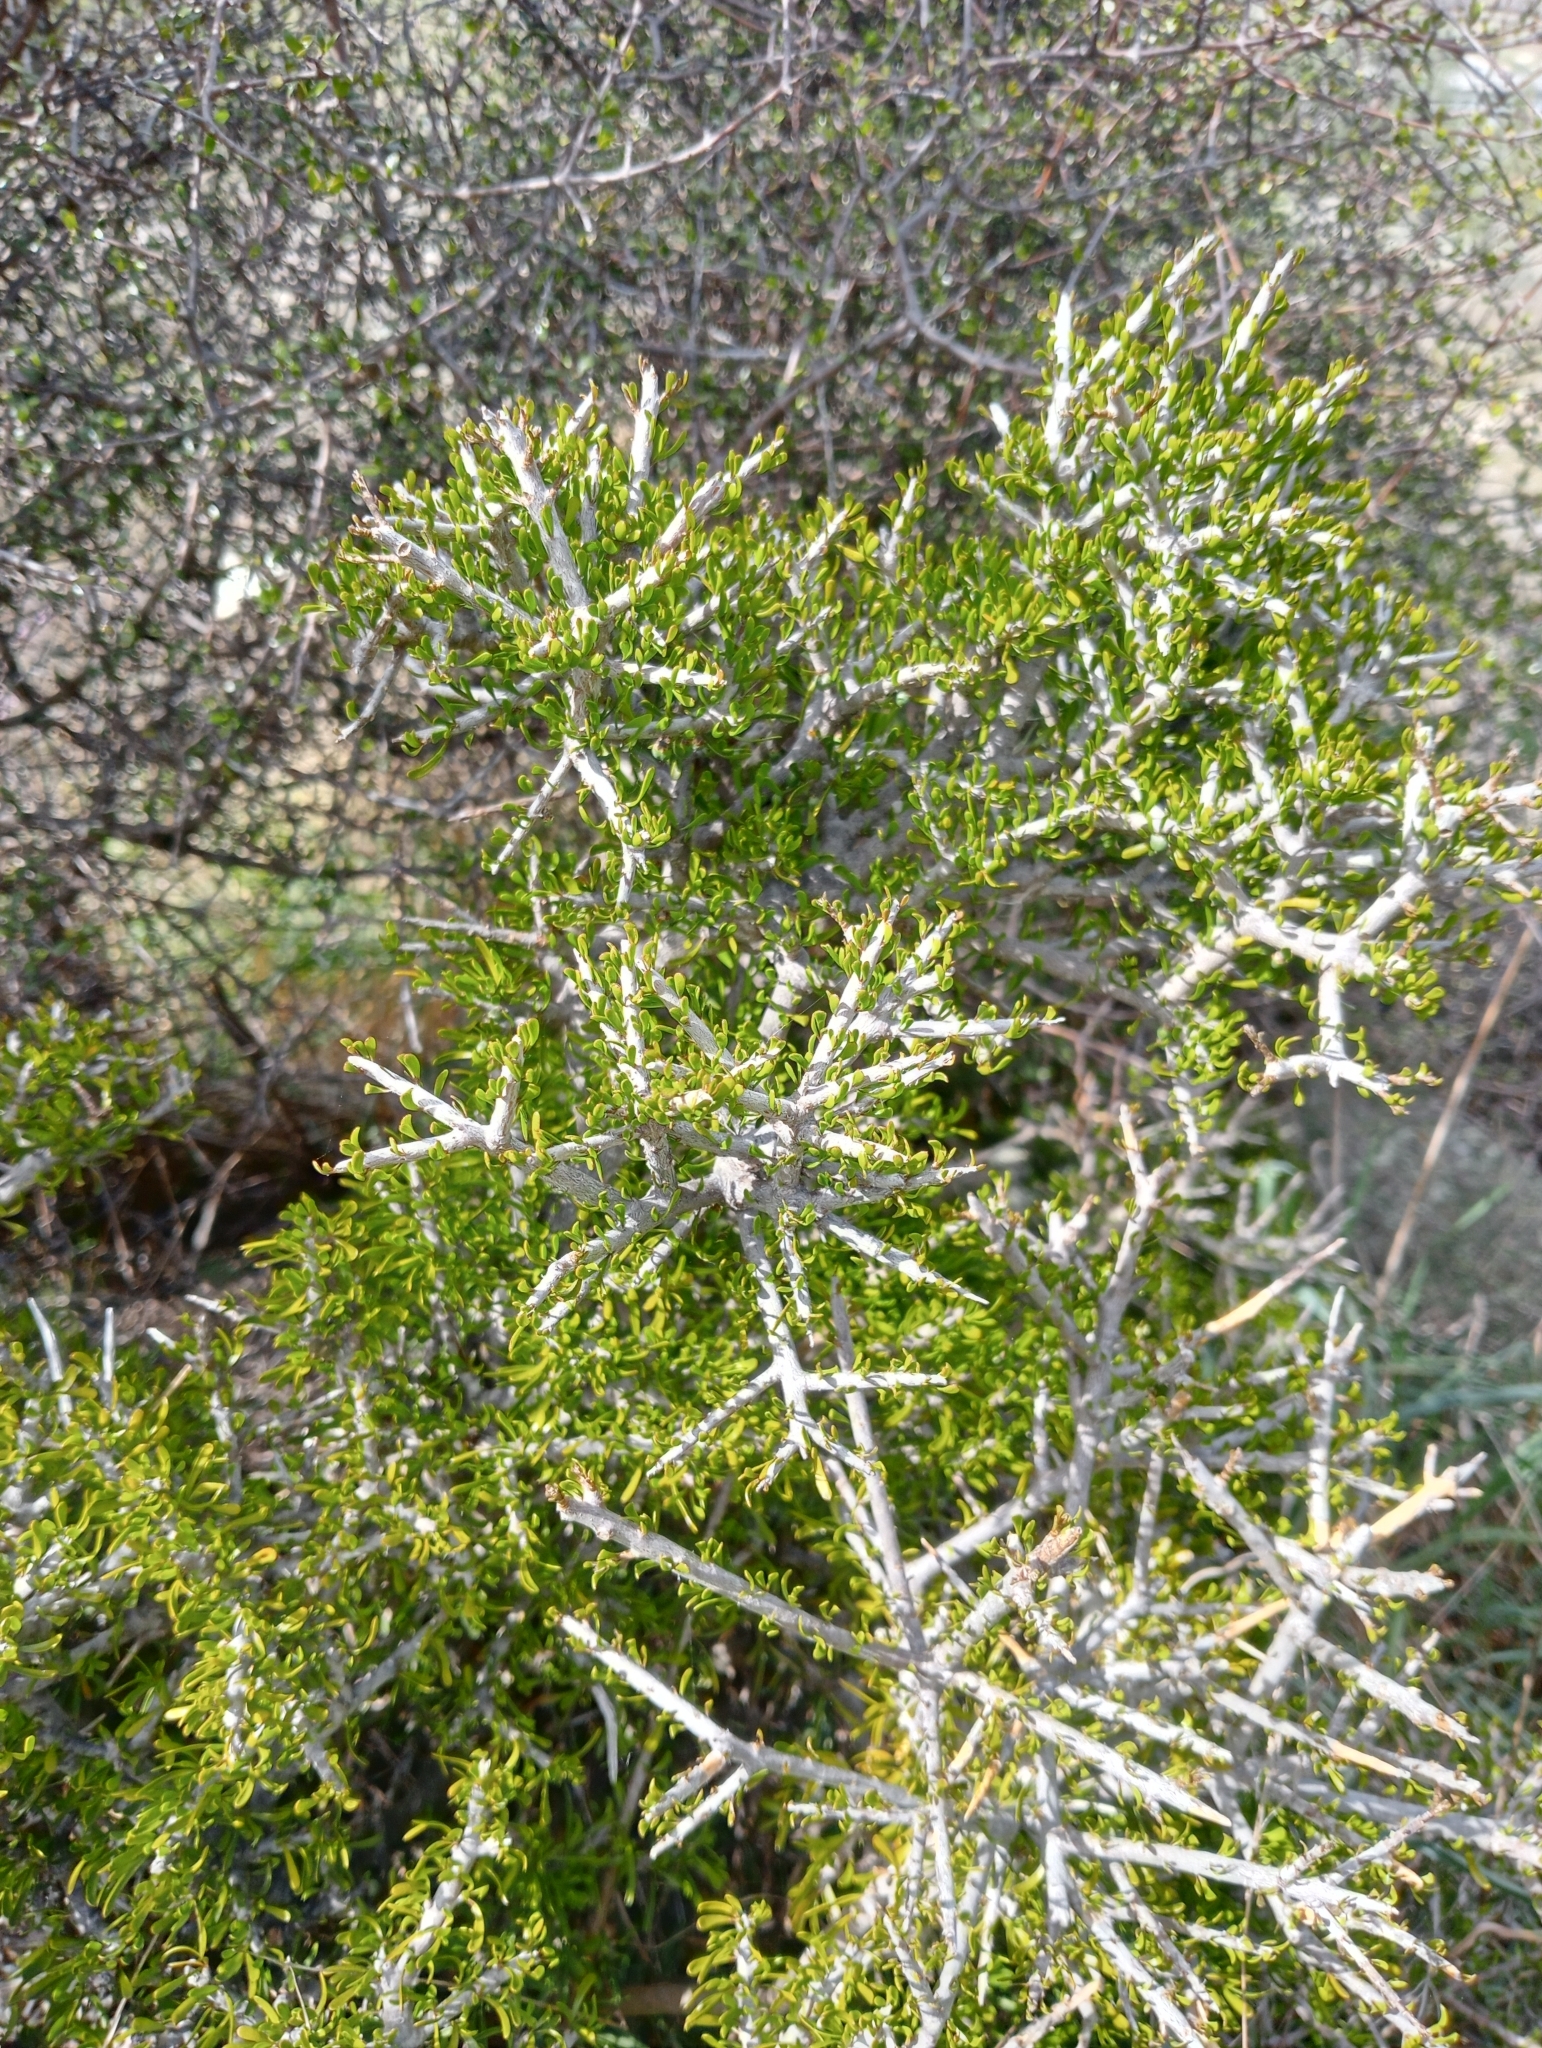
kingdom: Plantae
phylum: Tracheophyta
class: Magnoliopsida
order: Malpighiales
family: Violaceae
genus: Melicytus
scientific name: Melicytus alpinus
